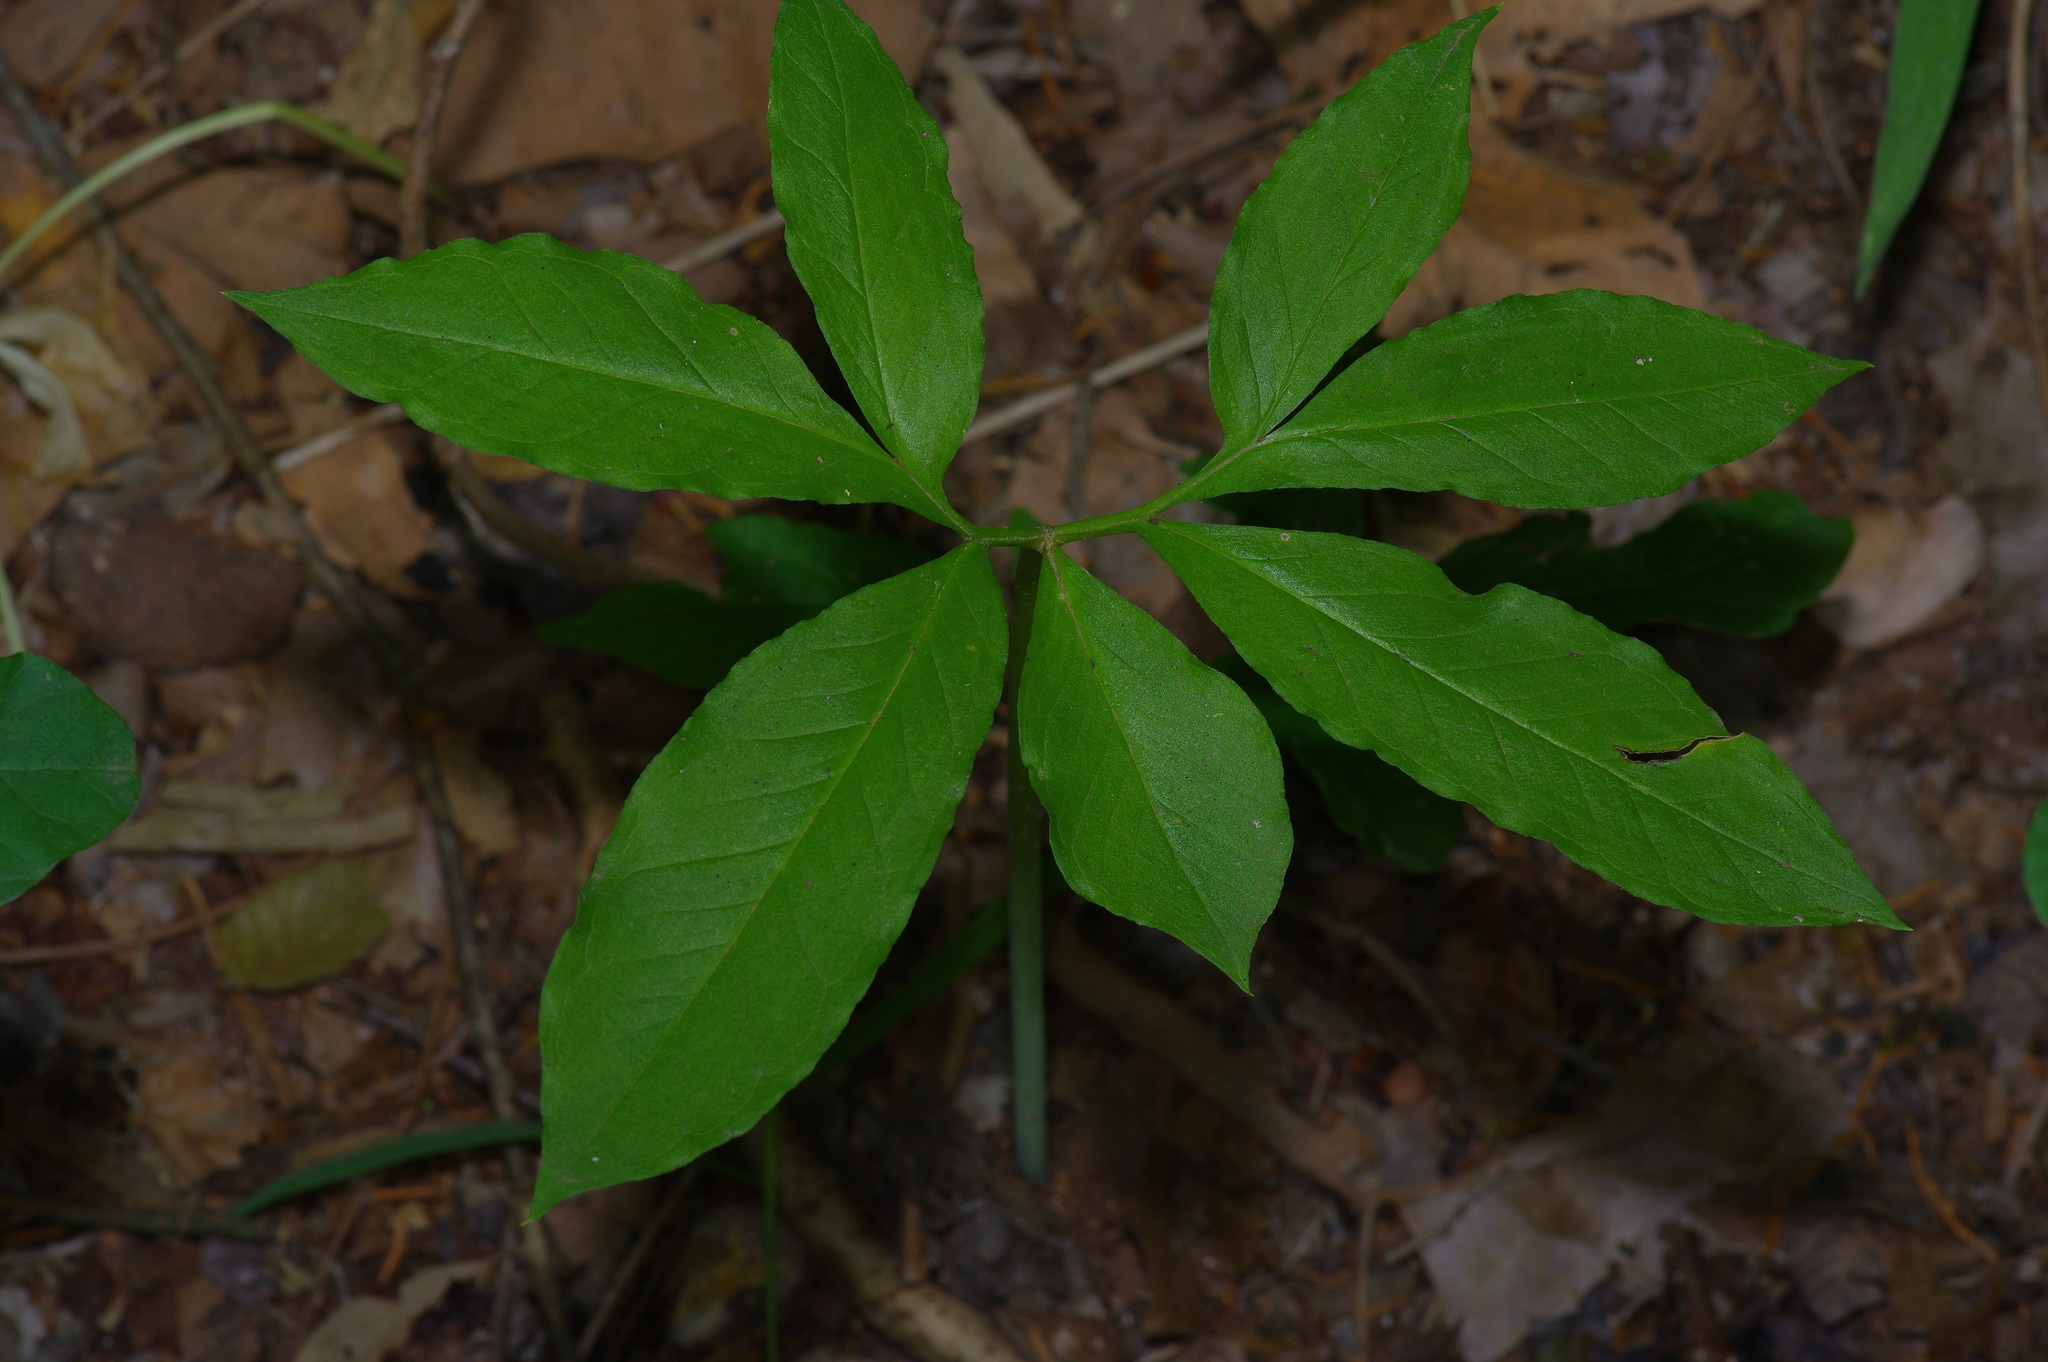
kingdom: Plantae
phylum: Tracheophyta
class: Liliopsida
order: Alismatales
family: Araceae
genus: Arisaema
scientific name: Arisaema dracontium
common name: Dragon-arum
